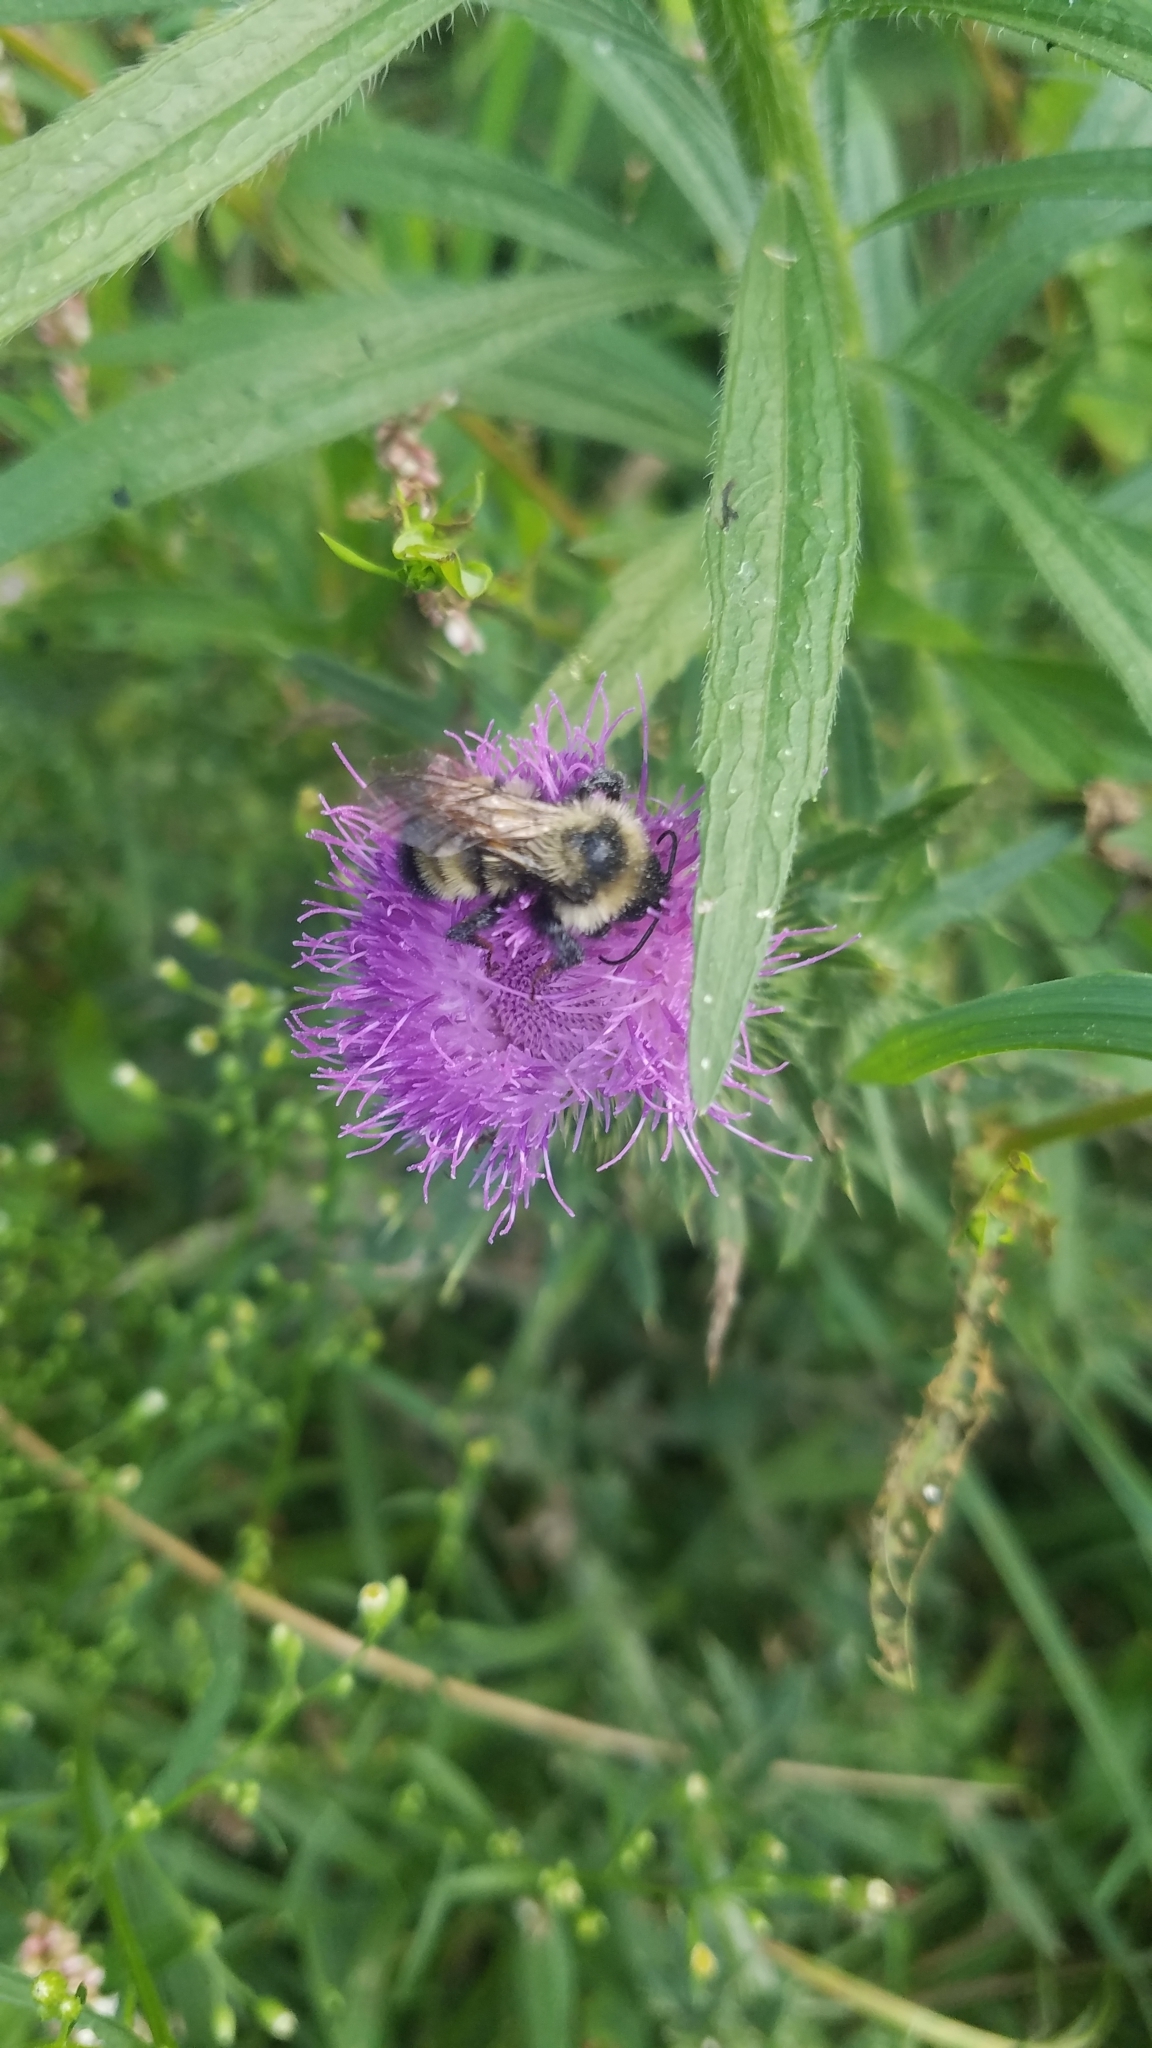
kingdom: Animalia
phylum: Arthropoda
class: Insecta
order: Hymenoptera
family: Apidae
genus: Bombus
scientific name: Bombus citrinus
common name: Lemon cuckoo bumble bee
